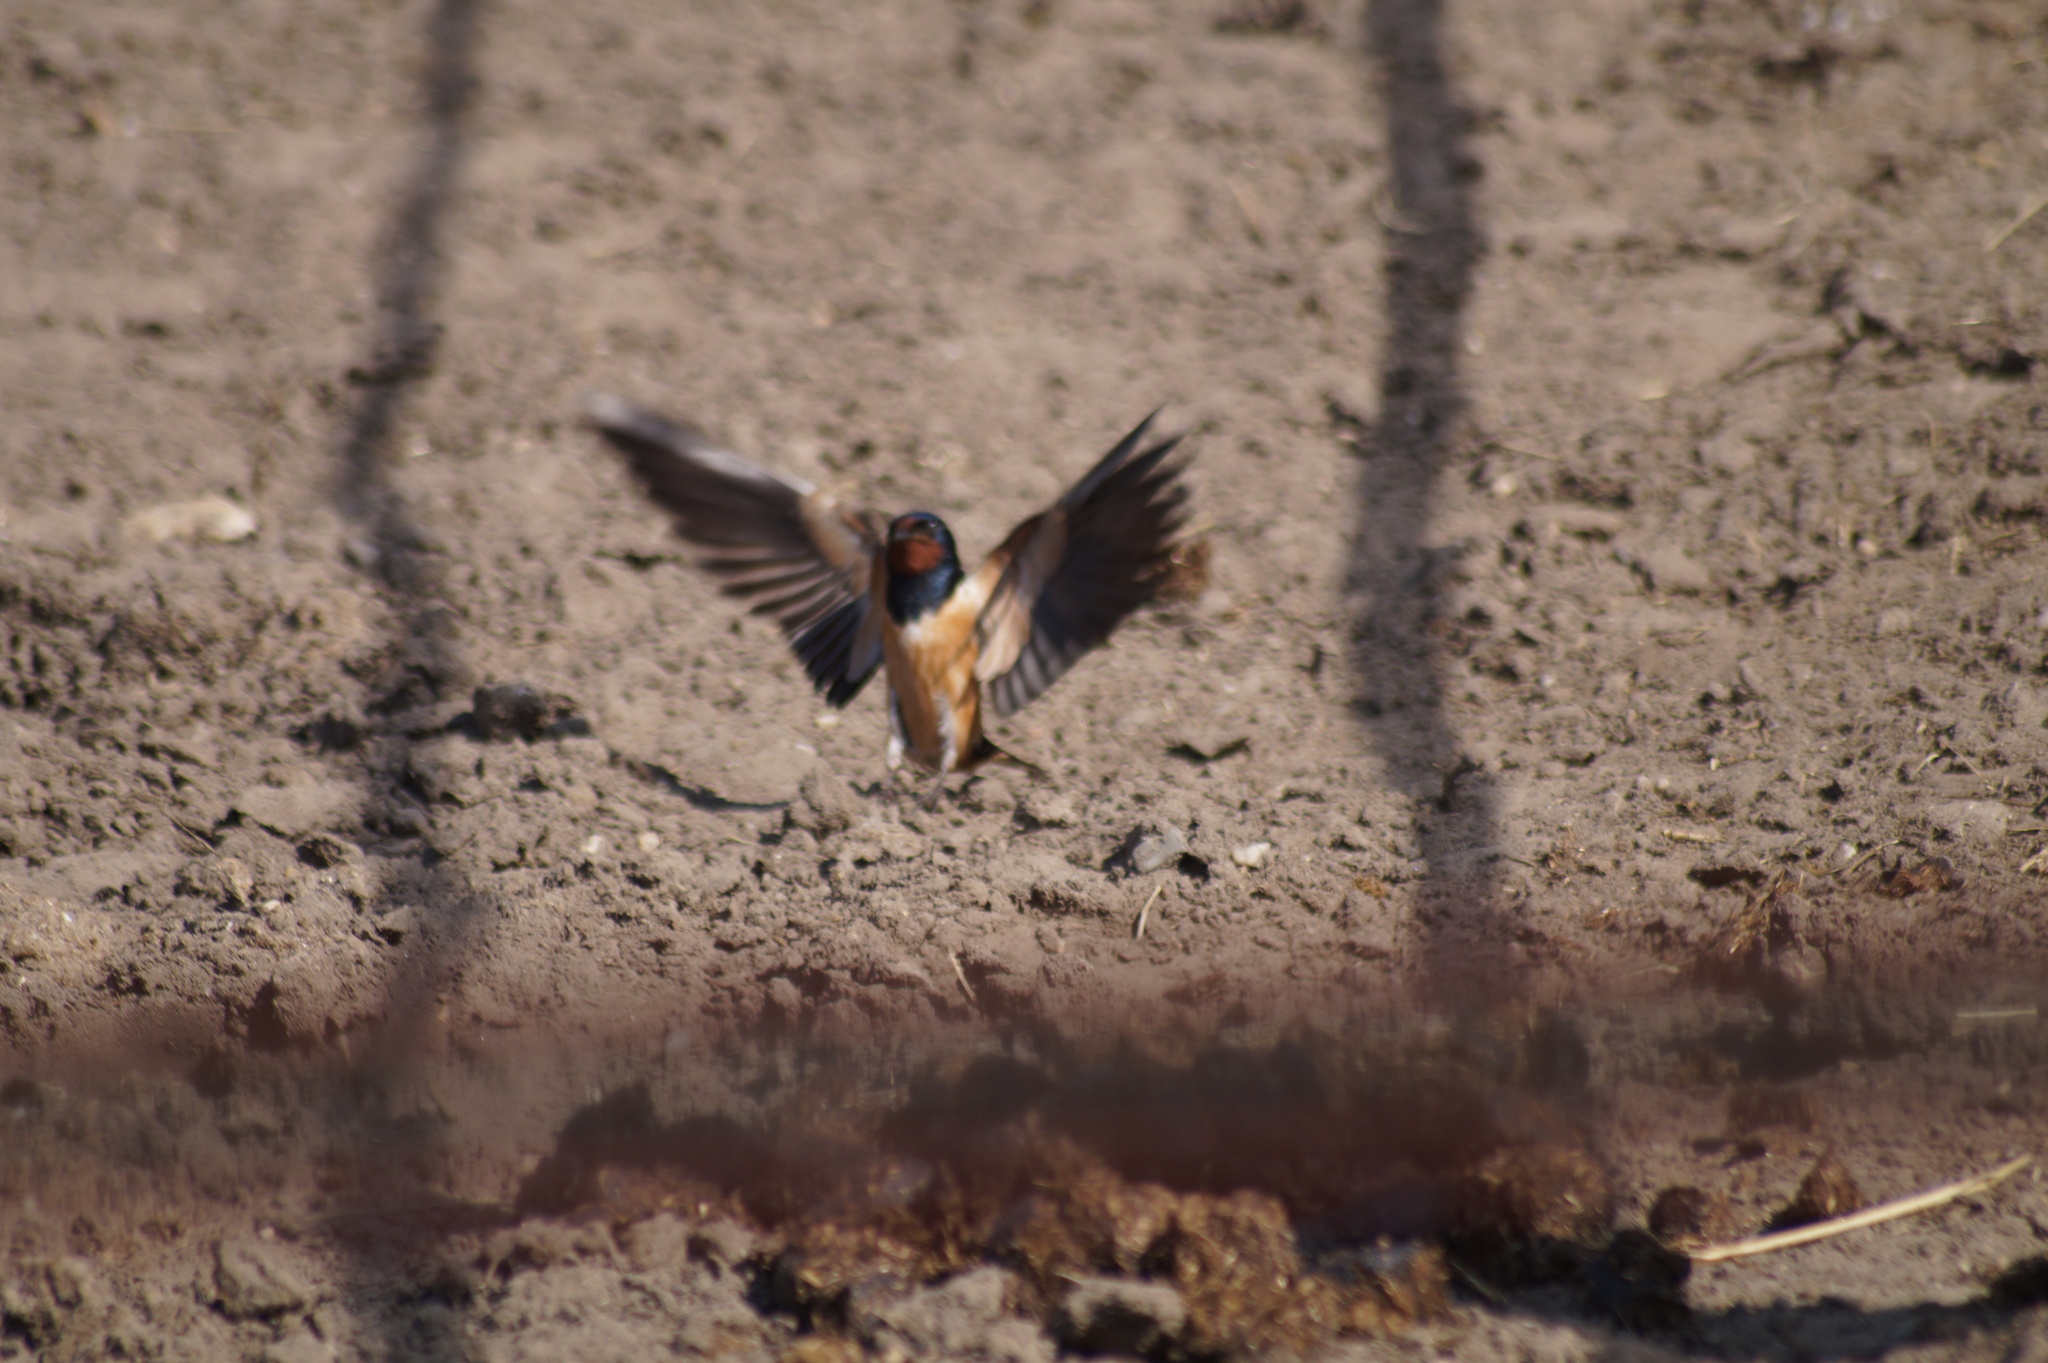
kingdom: Animalia
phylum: Chordata
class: Aves
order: Passeriformes
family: Hirundinidae
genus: Hirundo
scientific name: Hirundo rustica
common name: Barn swallow
